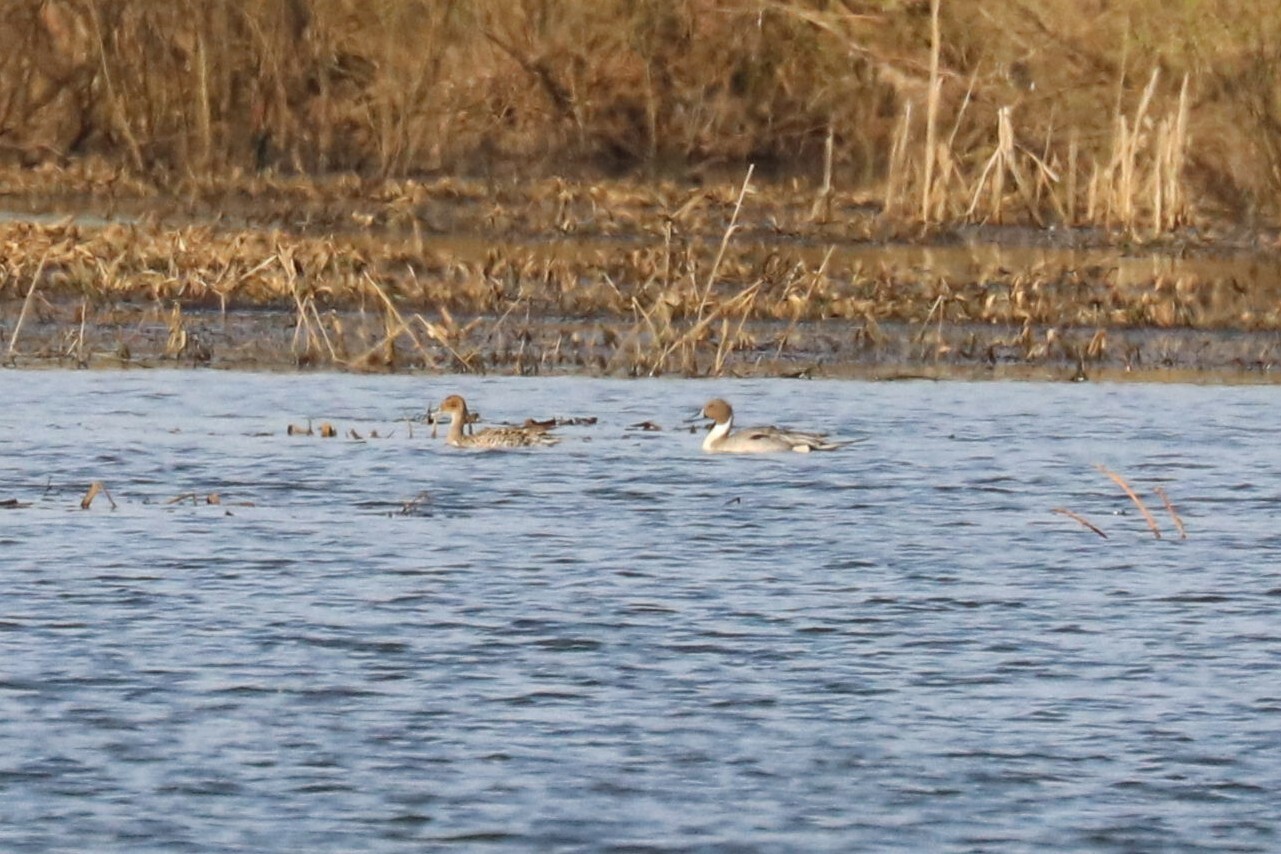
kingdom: Animalia
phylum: Chordata
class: Aves
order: Anseriformes
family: Anatidae
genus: Anas
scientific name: Anas acuta
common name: Northern pintail
